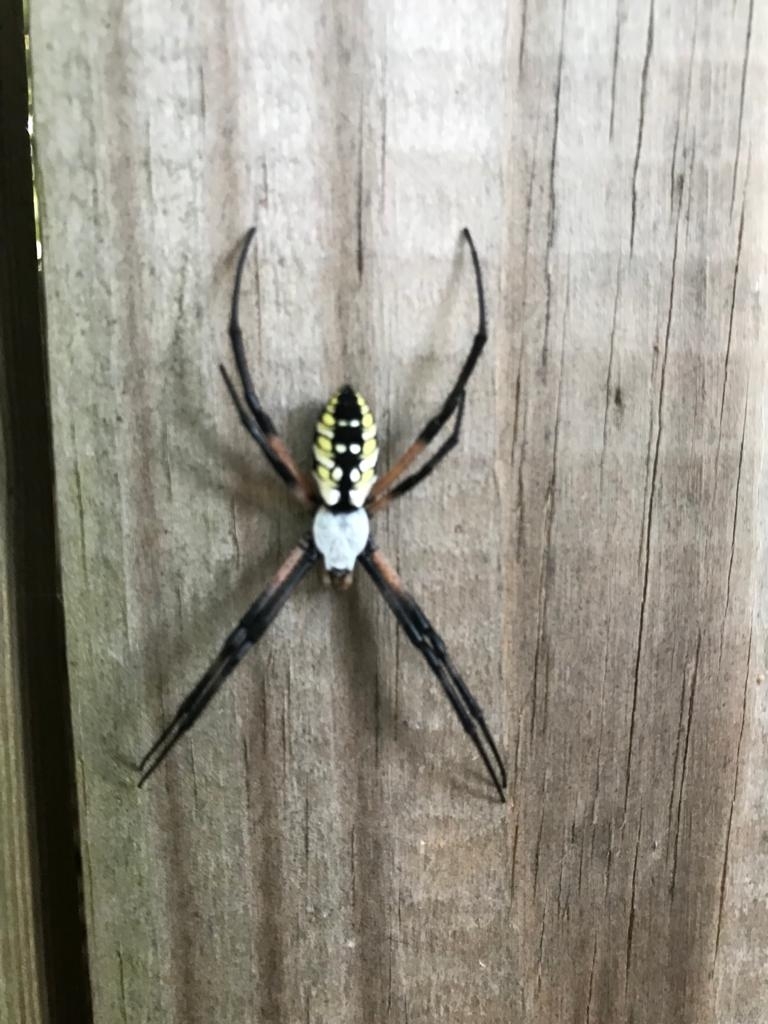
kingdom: Animalia
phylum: Arthropoda
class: Arachnida
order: Araneae
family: Araneidae
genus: Argiope
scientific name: Argiope aurantia
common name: Orb weavers
